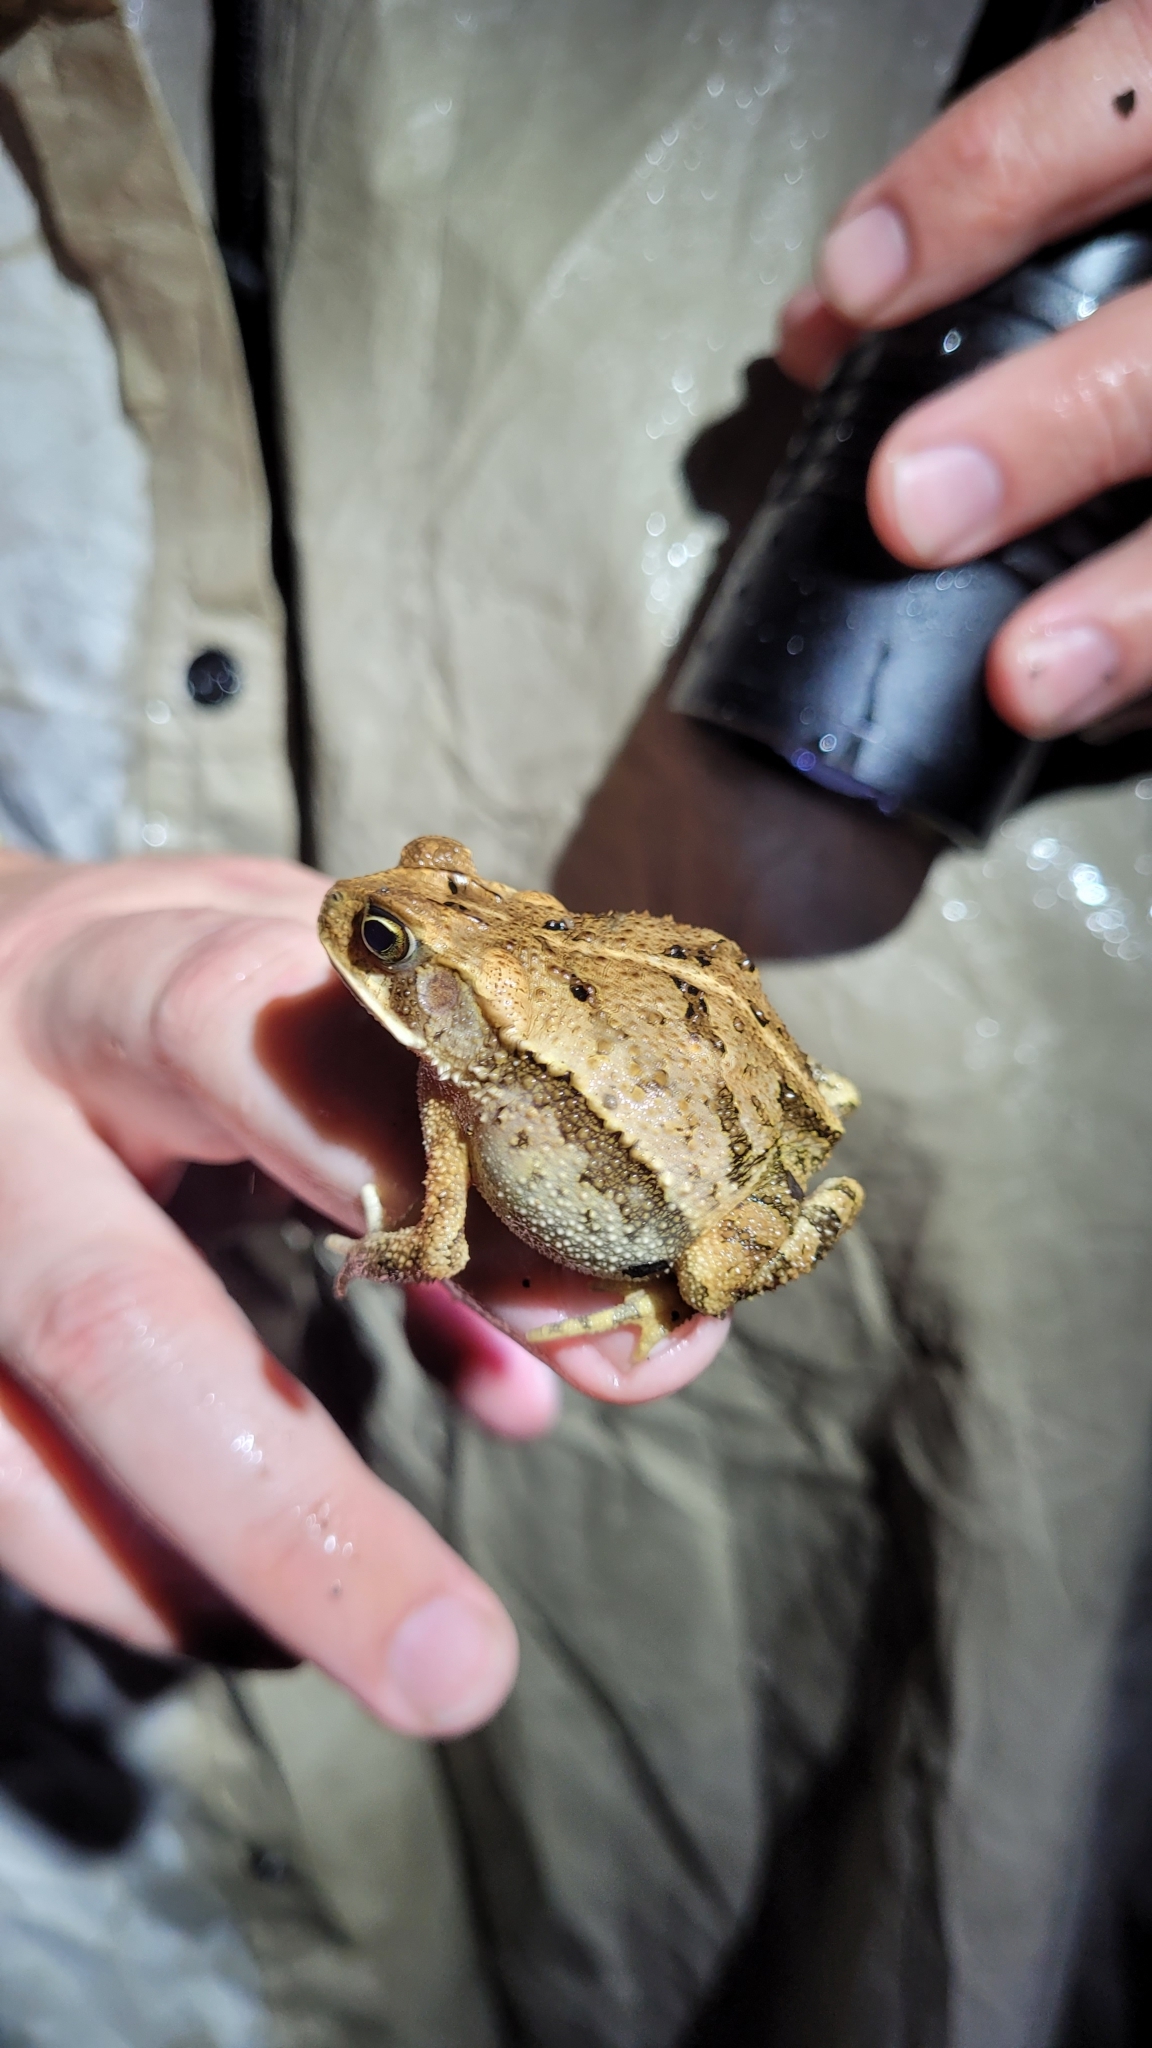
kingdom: Animalia
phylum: Chordata
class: Amphibia
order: Anura
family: Bufonidae
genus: Incilius
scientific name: Incilius valliceps
